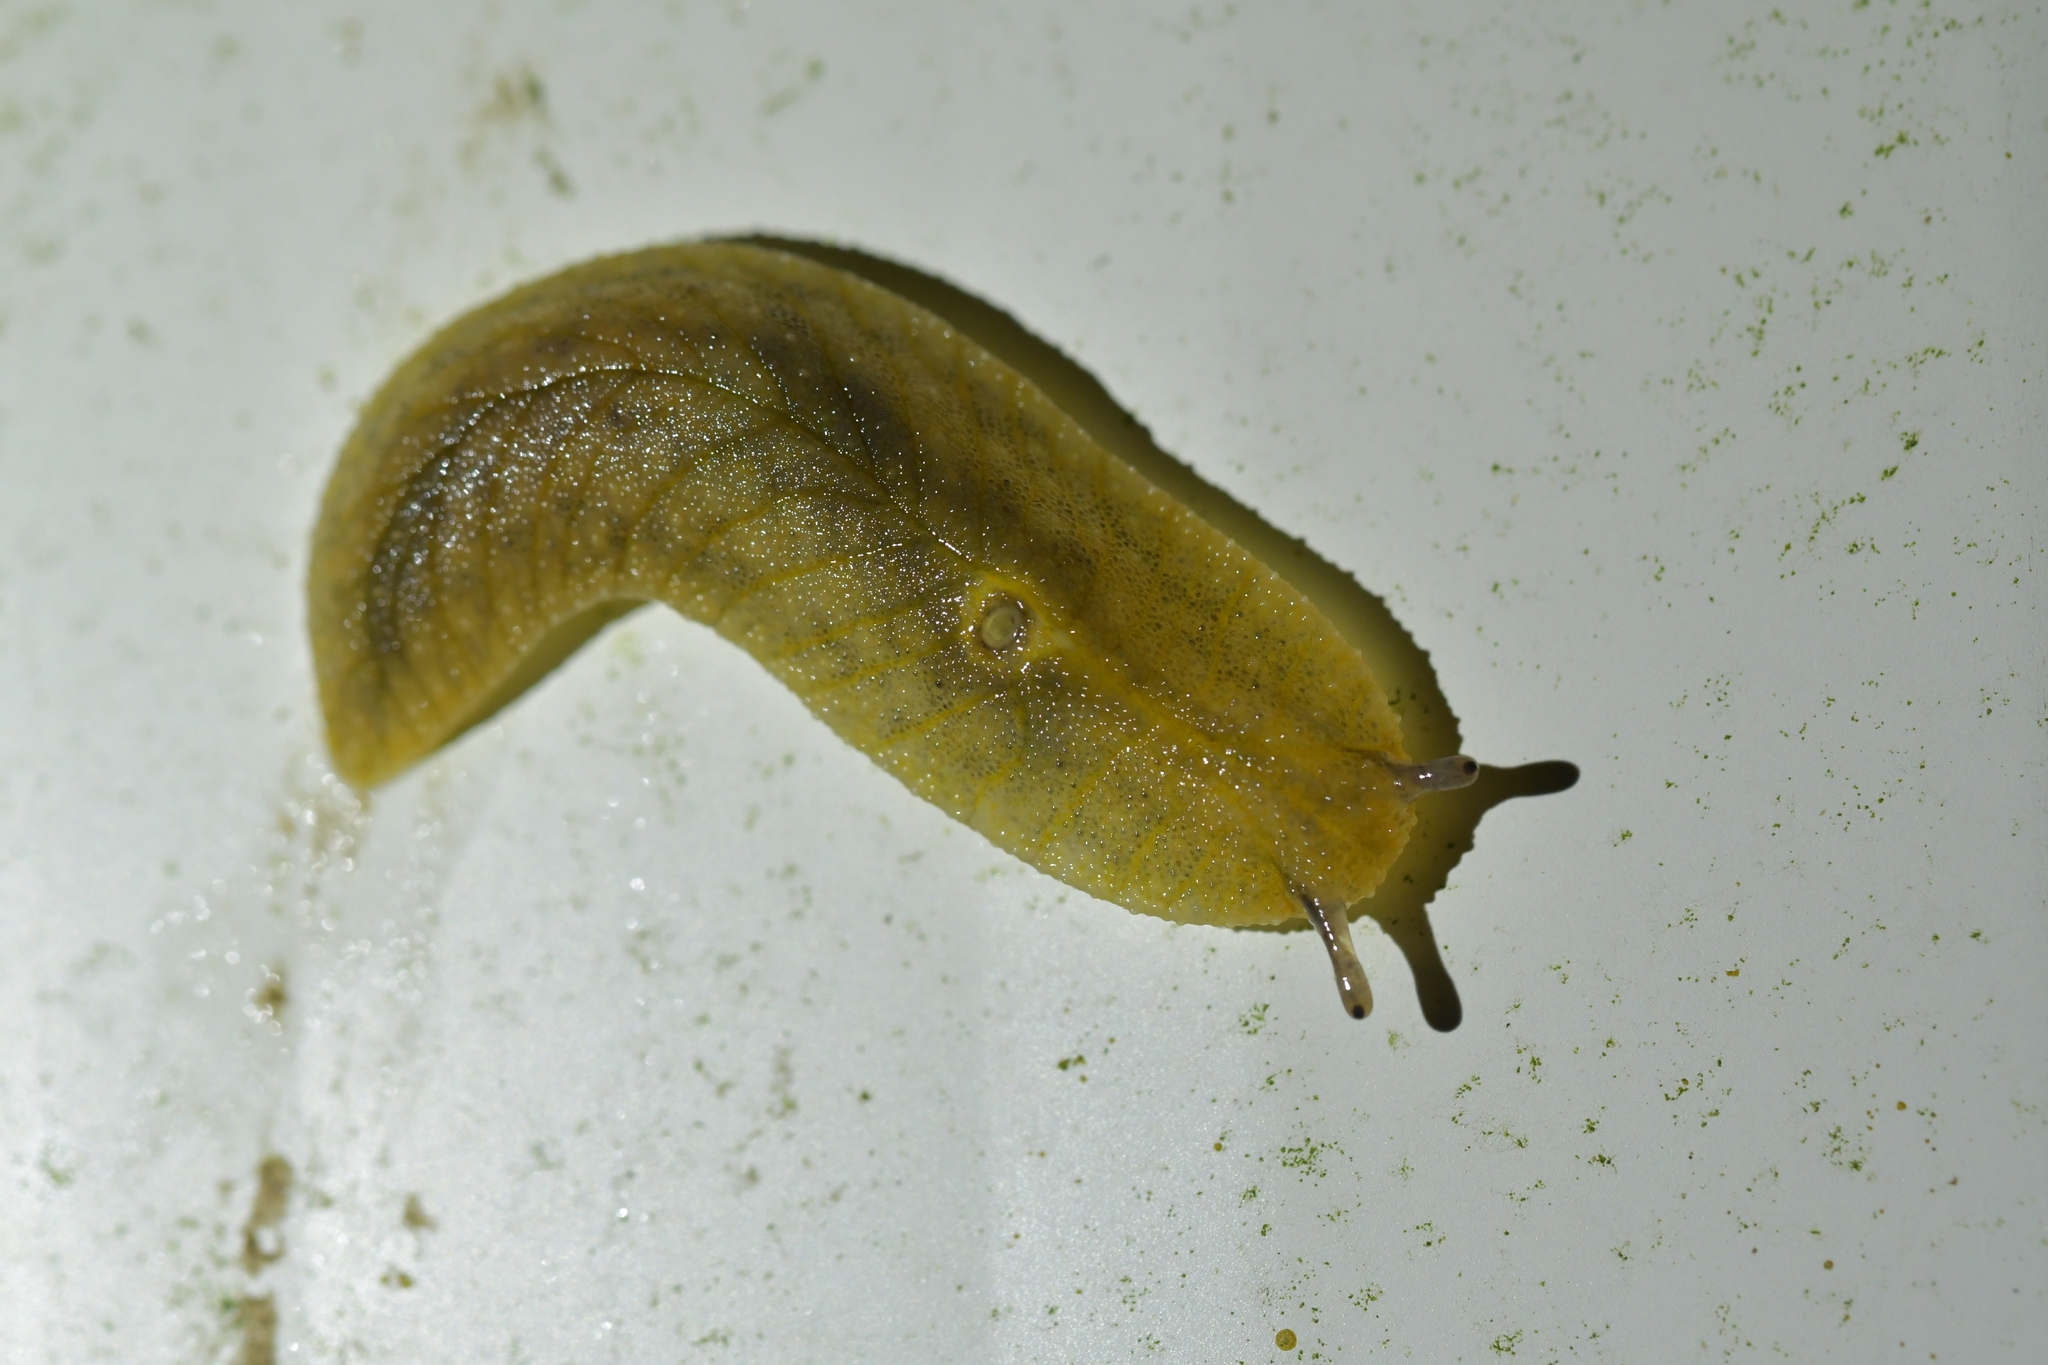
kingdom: Animalia
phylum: Mollusca
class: Gastropoda
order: Stylommatophora
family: Athoracophoridae
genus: Athoracophorus
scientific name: Athoracophorus bitentaculatus
